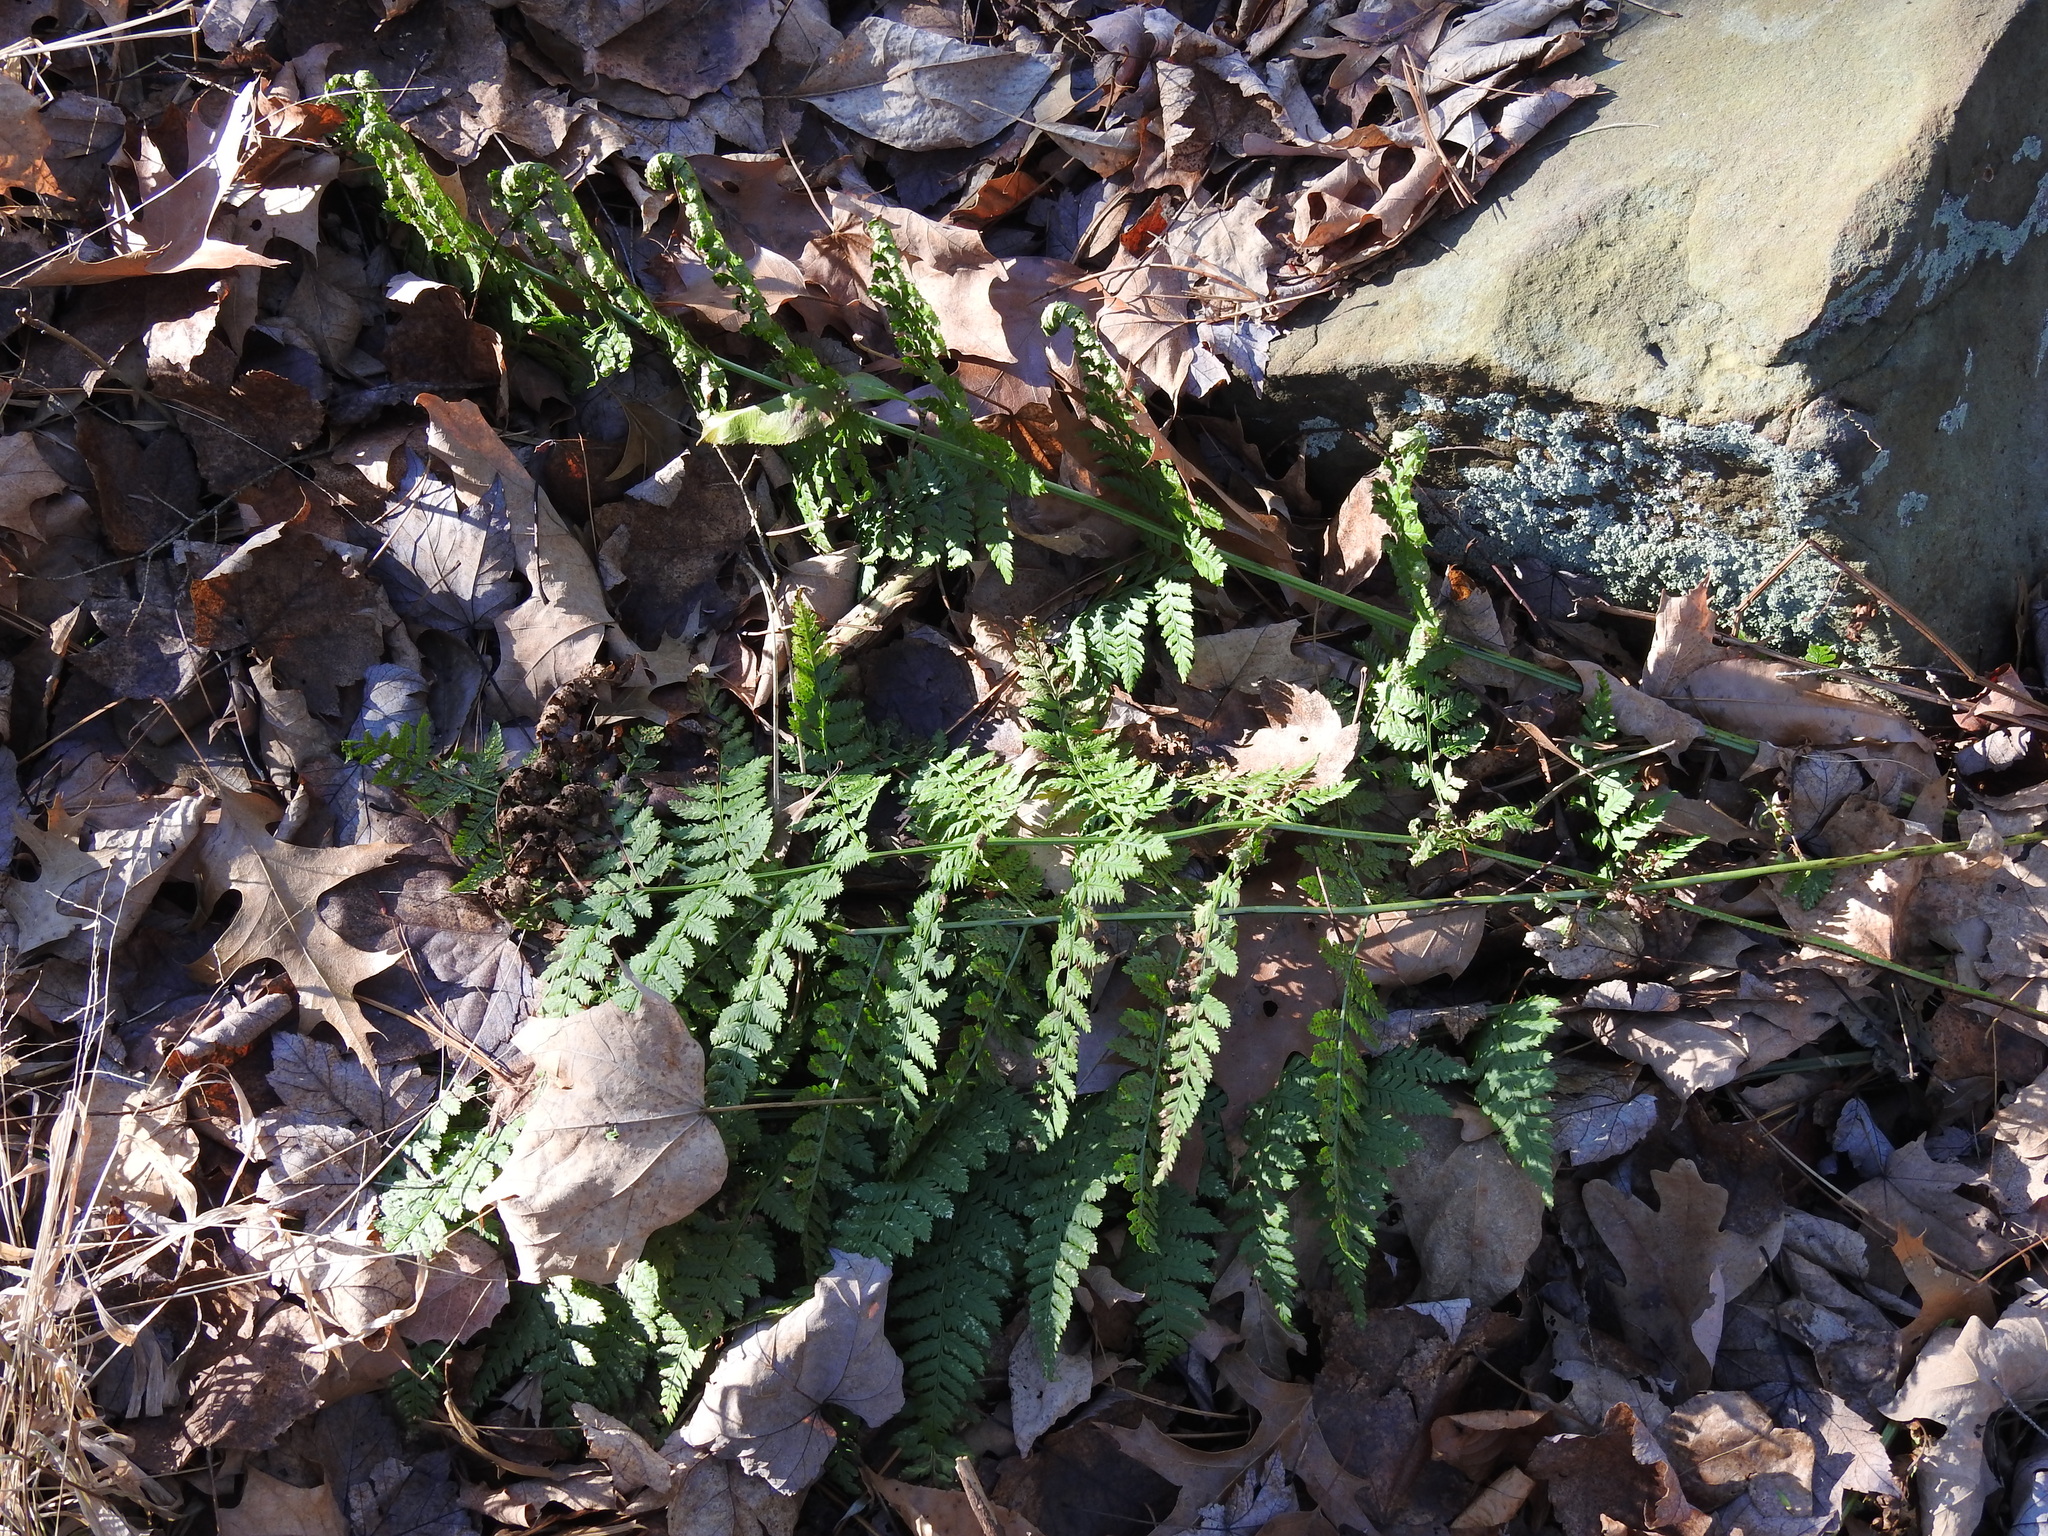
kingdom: Plantae
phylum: Tracheophyta
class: Polypodiopsida
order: Polypodiales
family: Dryopteridaceae
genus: Dryopteris
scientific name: Dryopteris intermedia
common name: Evergreen wood fern
